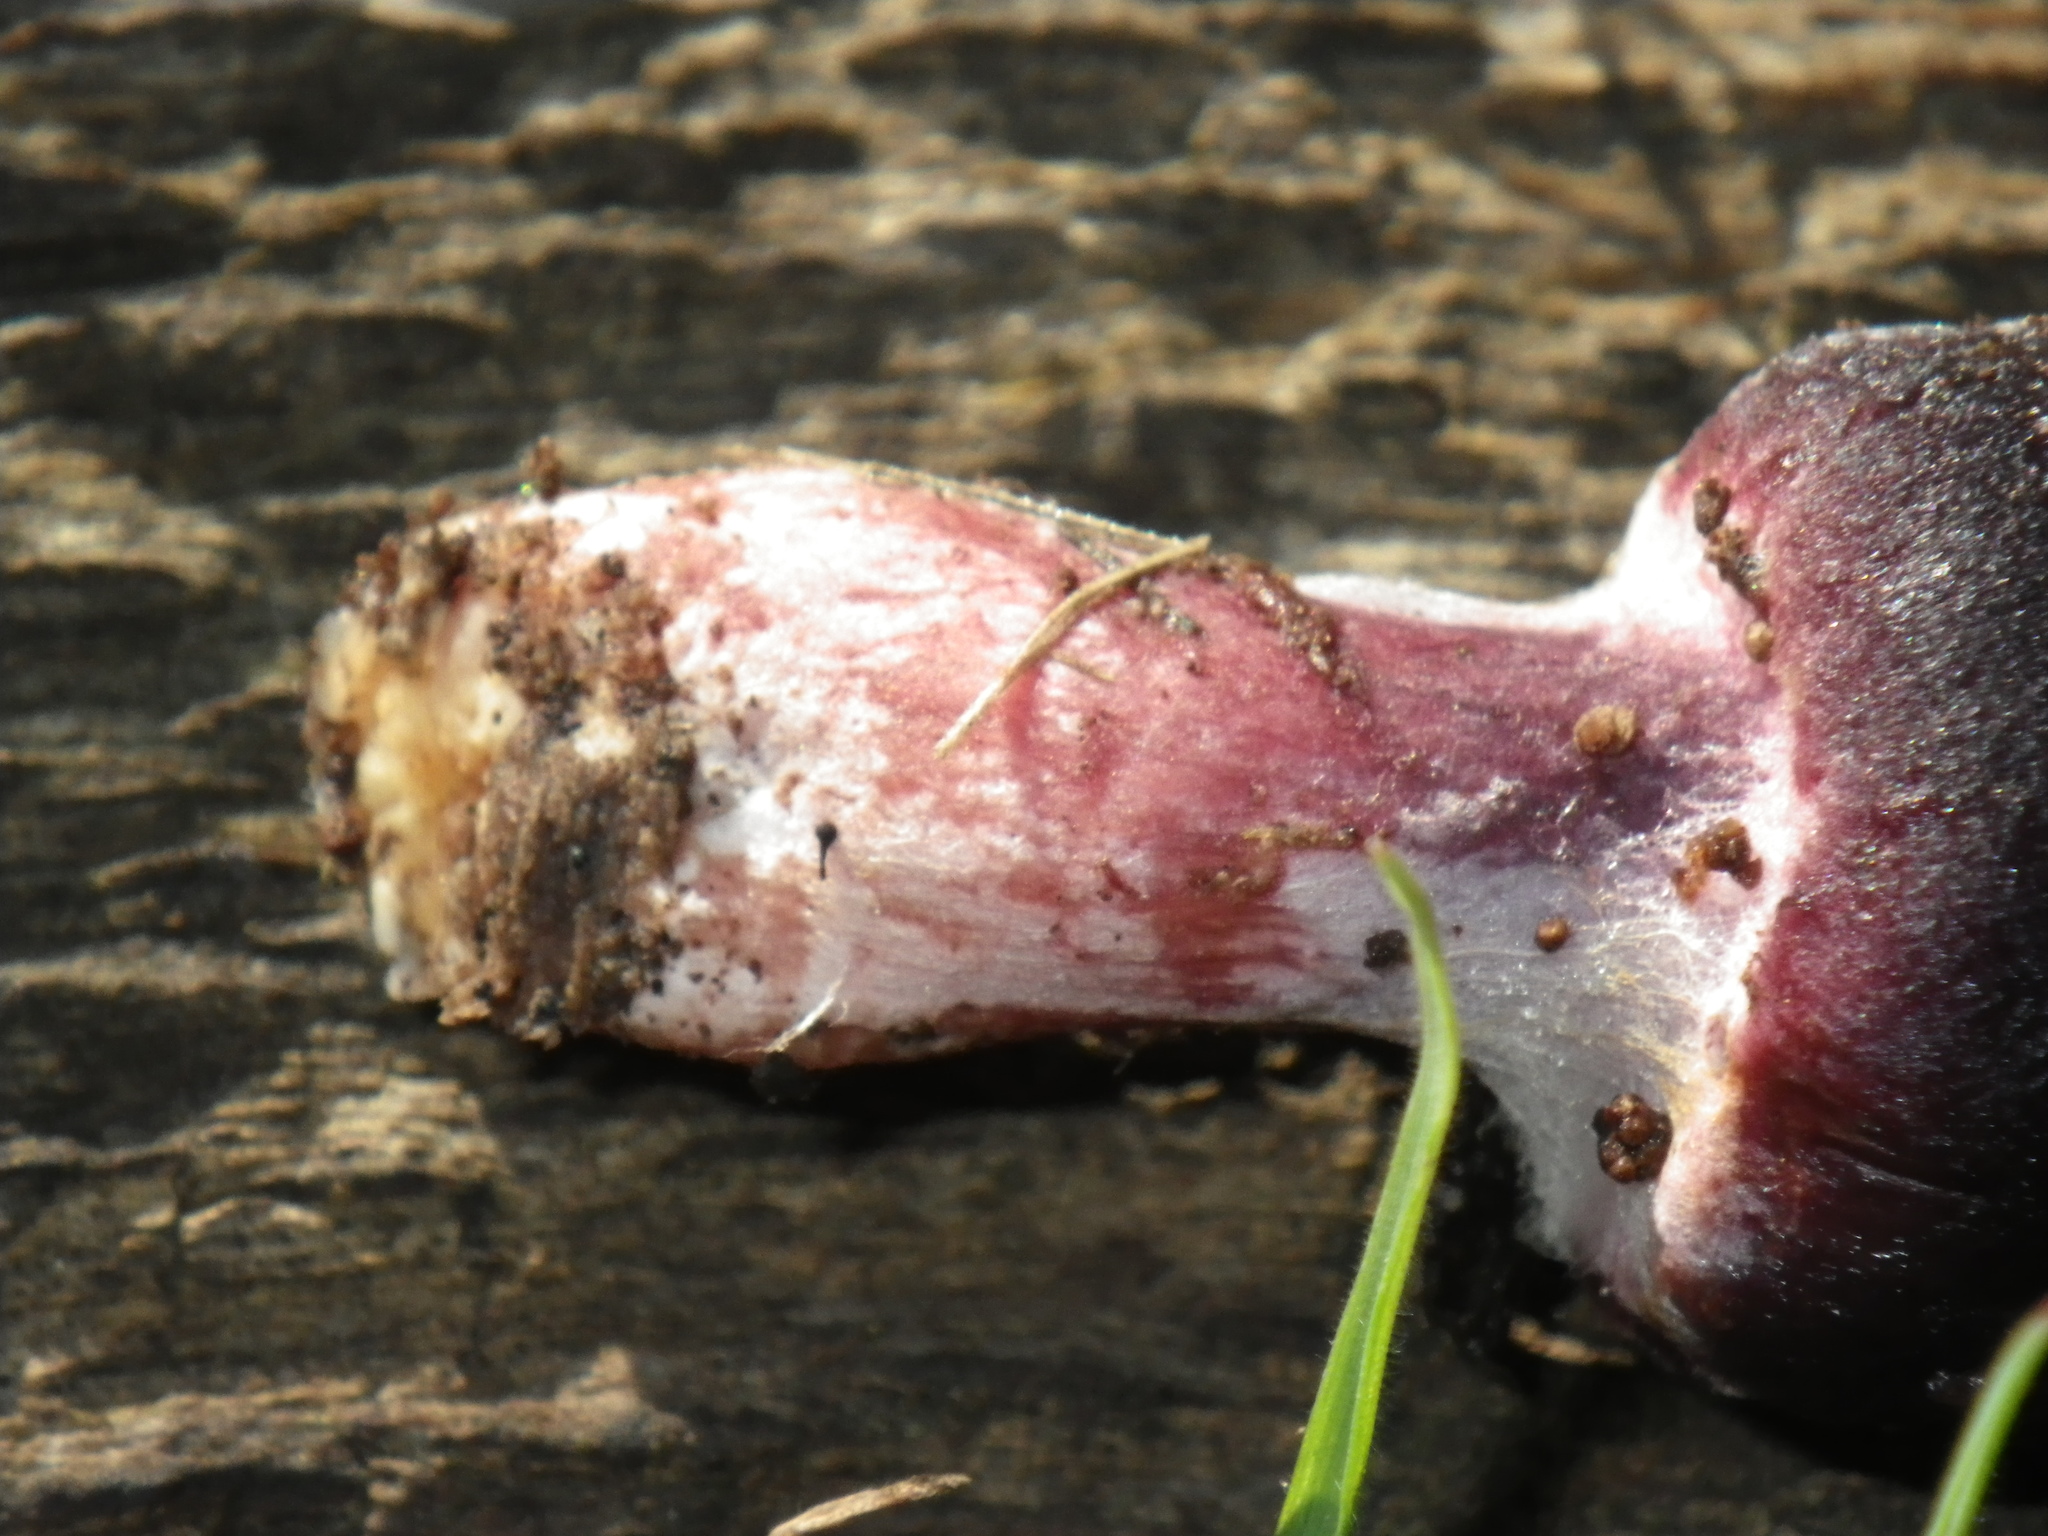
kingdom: Fungi
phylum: Basidiomycota
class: Agaricomycetes
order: Agaricales
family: Hymenogastraceae
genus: Gymnopilus
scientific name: Gymnopilus thiersii
